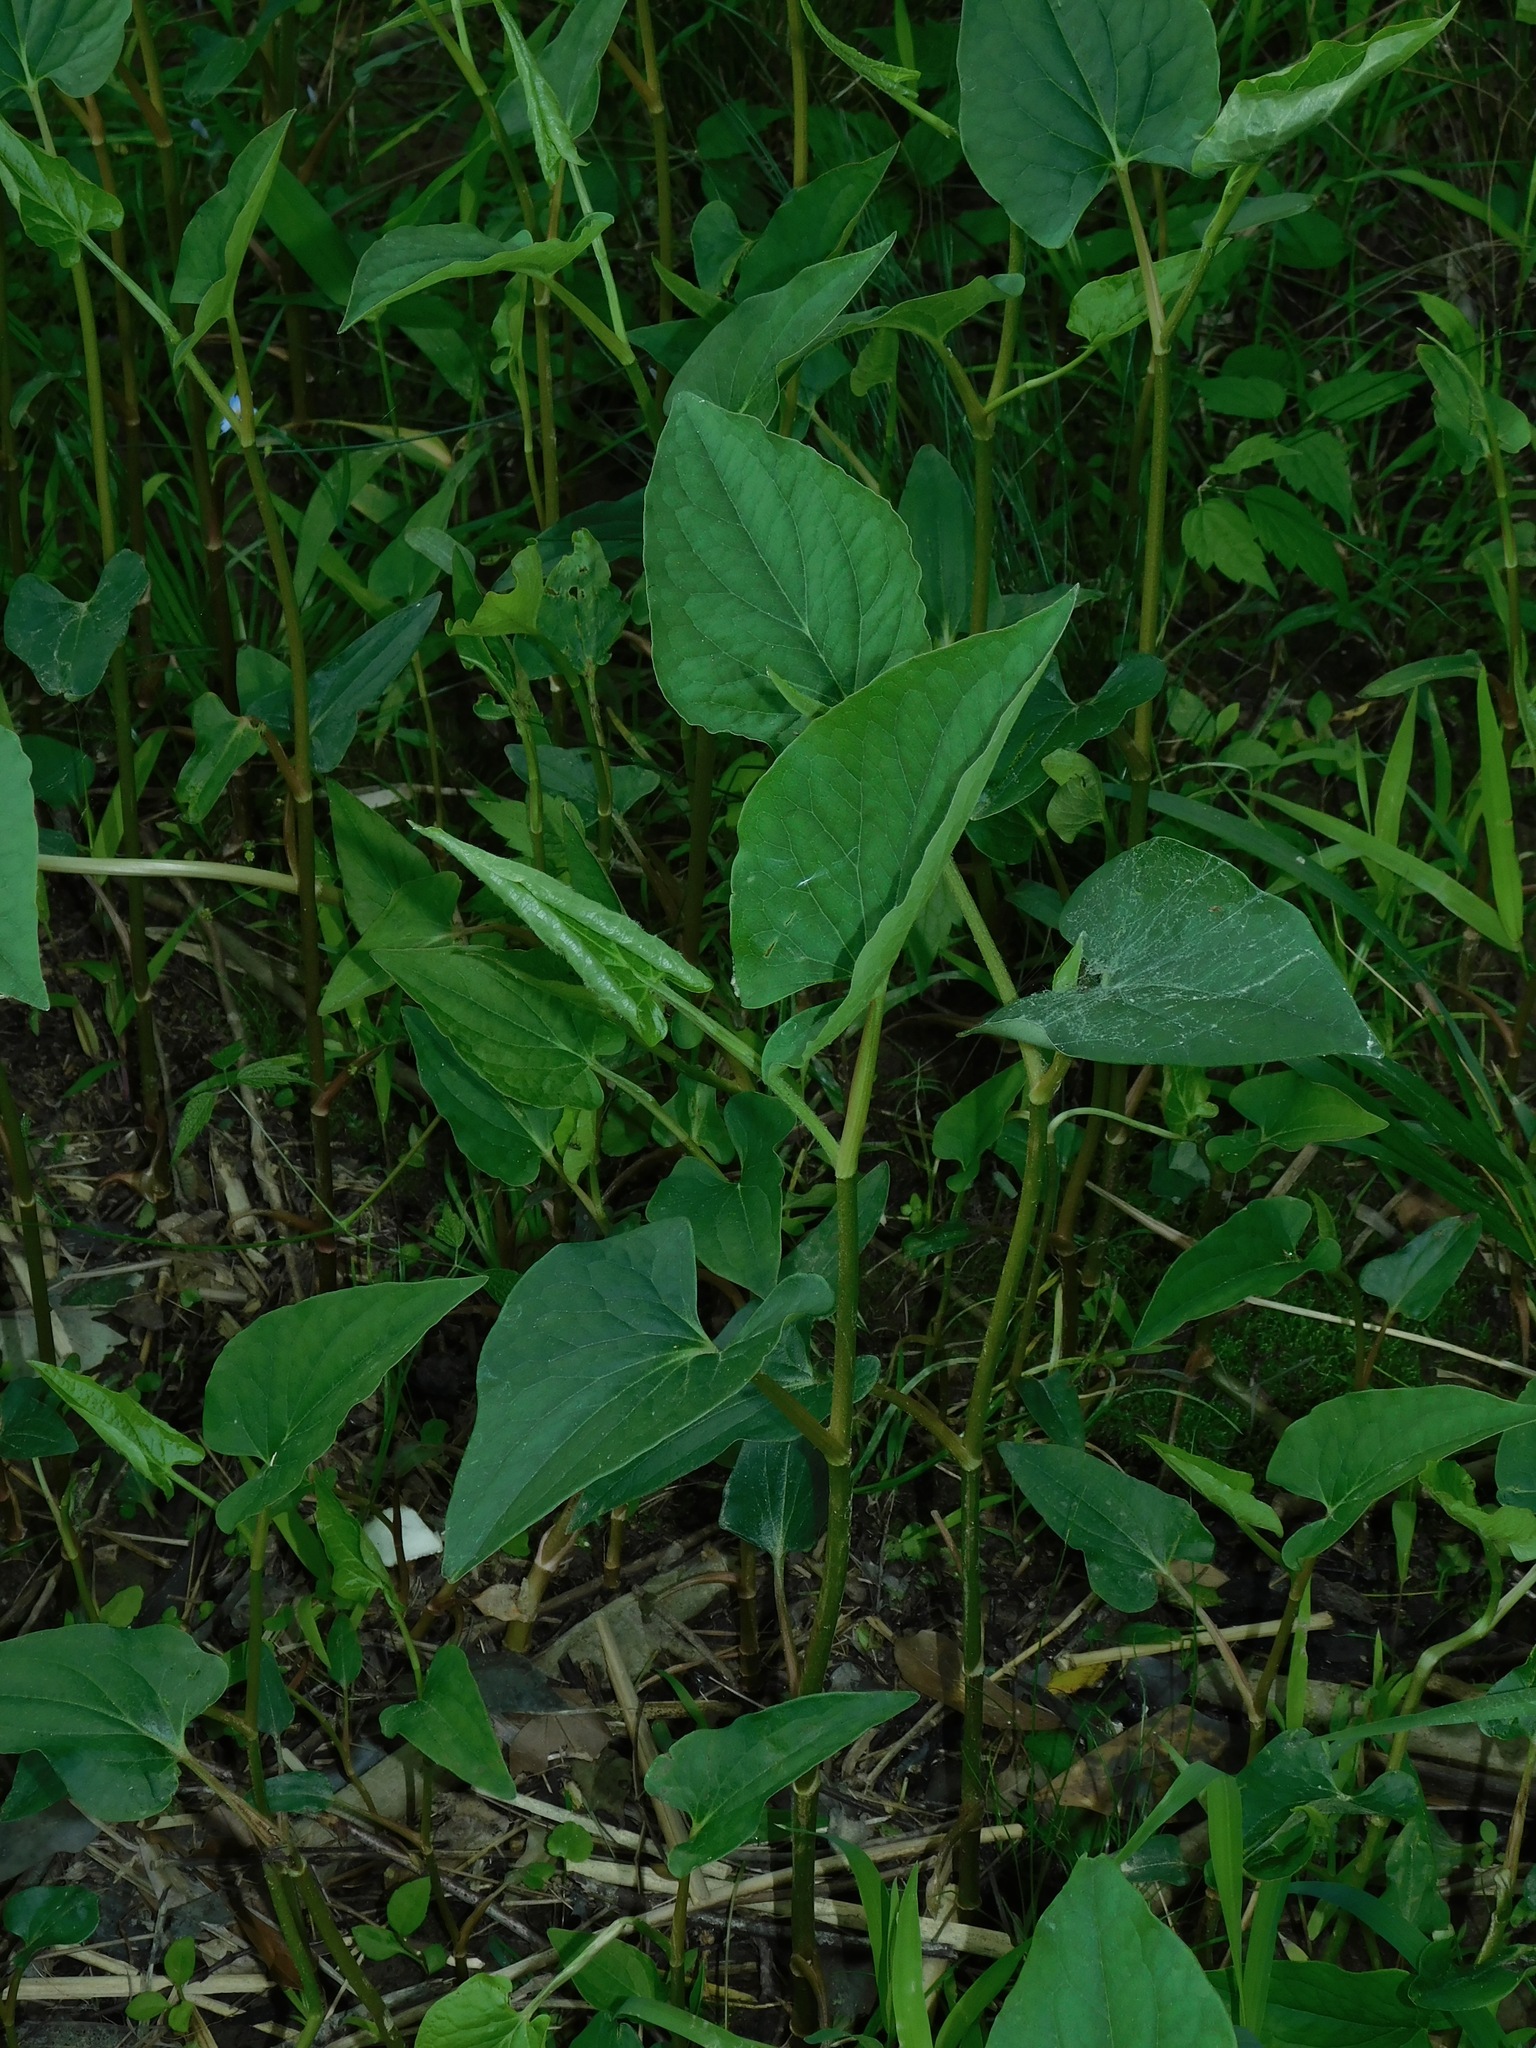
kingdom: Plantae
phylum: Tracheophyta
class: Magnoliopsida
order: Piperales
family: Saururaceae
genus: Saururus
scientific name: Saururus cernuus
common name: Lizard's-tail
